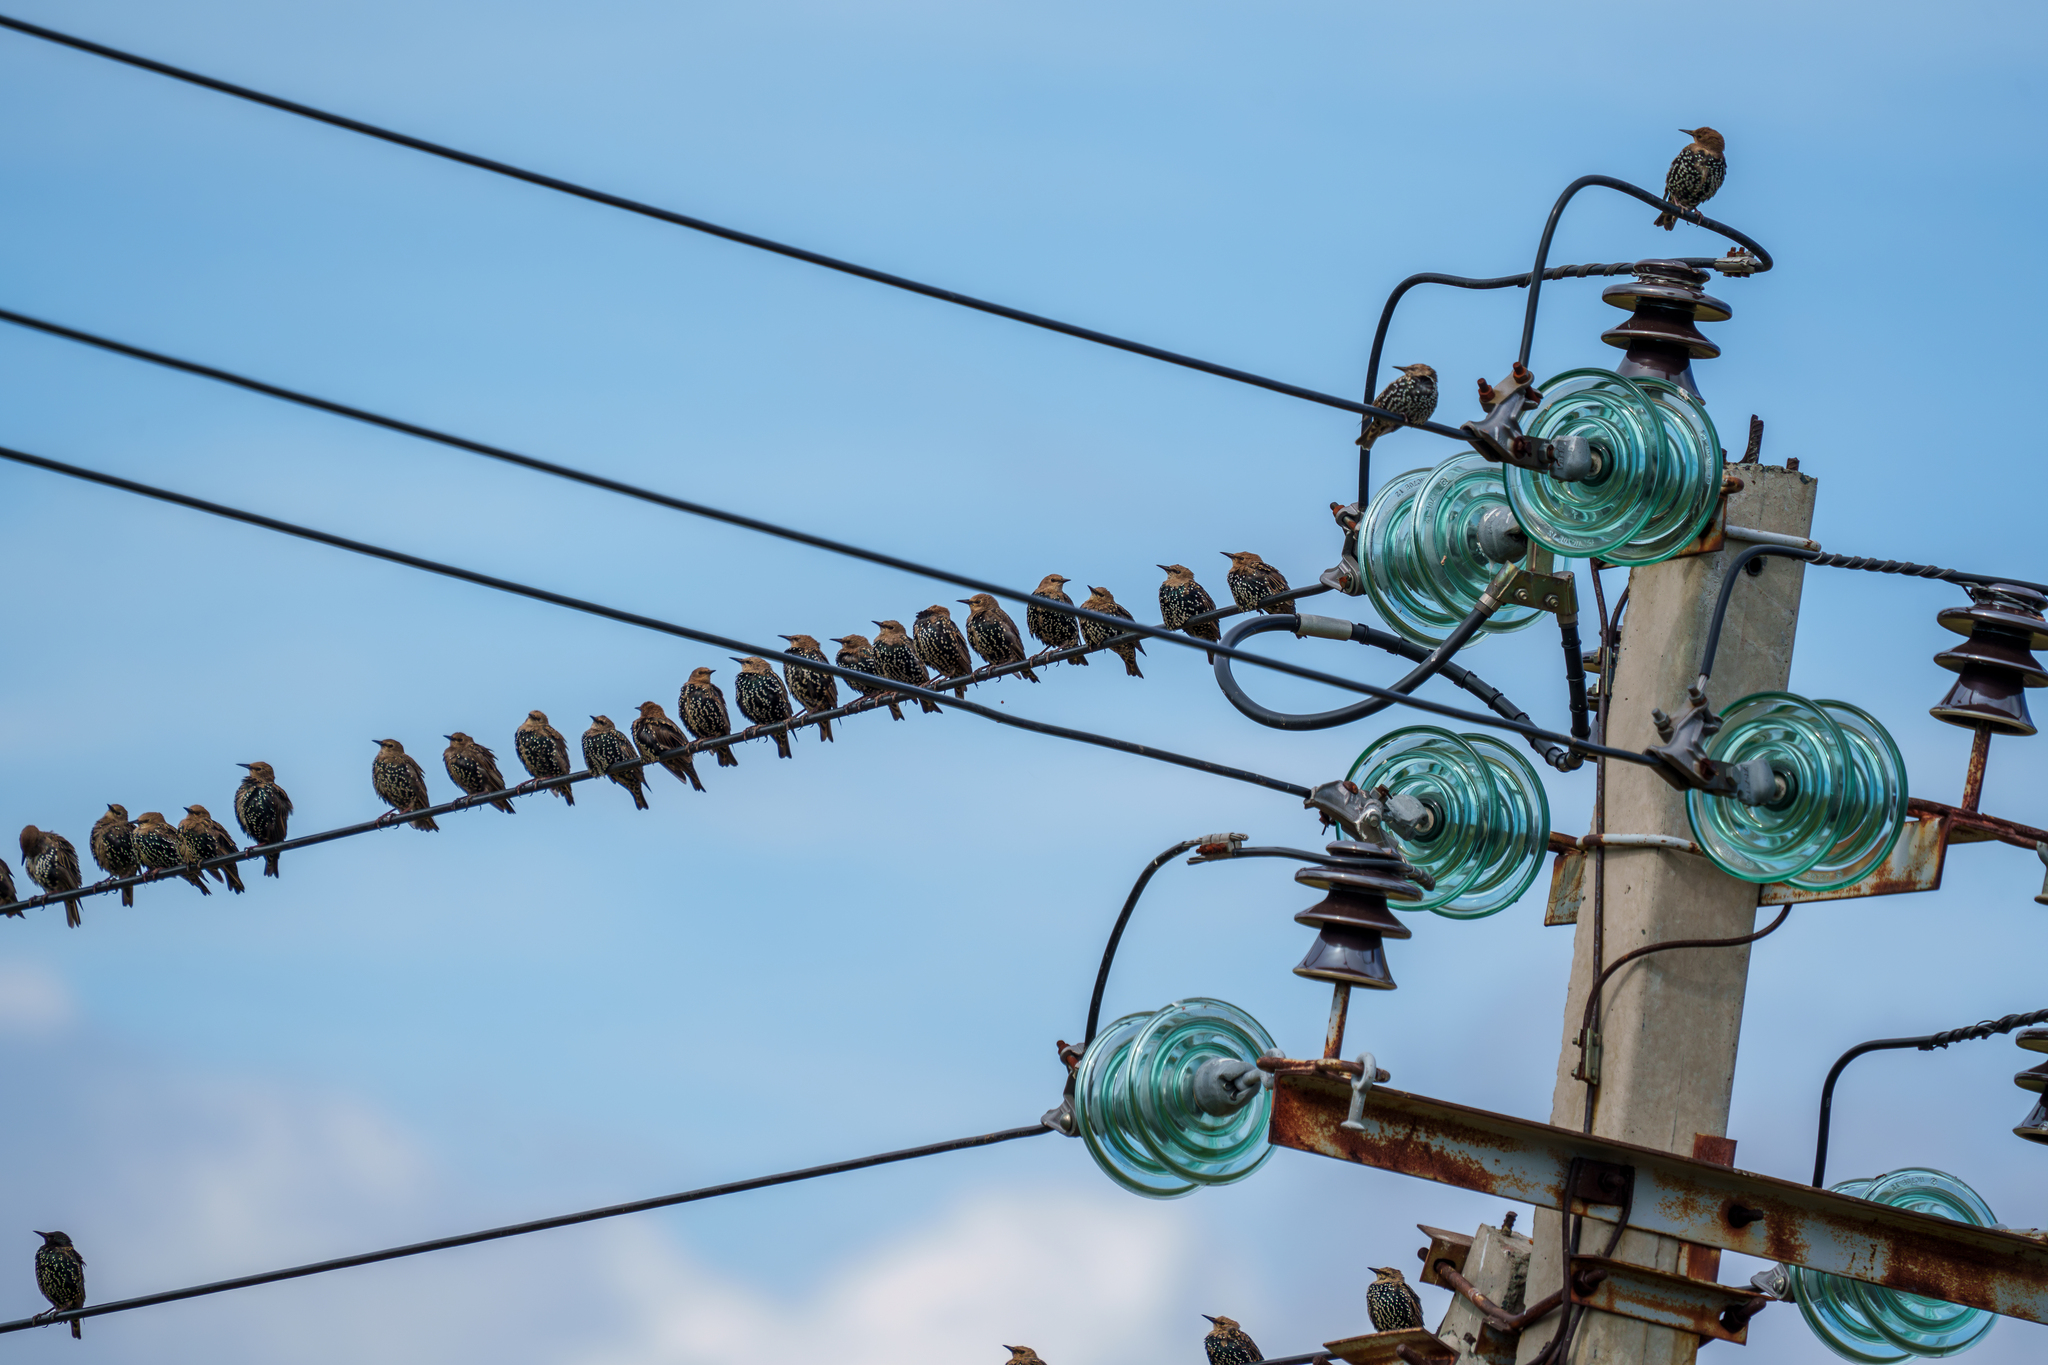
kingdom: Animalia
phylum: Chordata
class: Aves
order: Passeriformes
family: Sturnidae
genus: Sturnus
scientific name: Sturnus vulgaris
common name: Common starling
